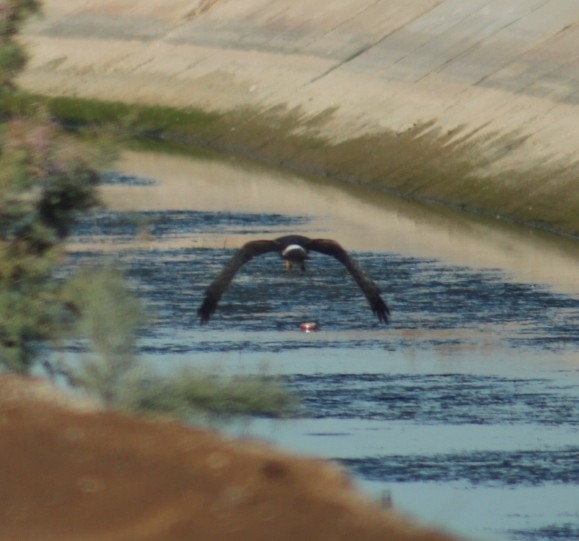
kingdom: Animalia
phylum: Chordata
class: Aves
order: Accipitriformes
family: Accipitridae
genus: Circus
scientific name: Circus cyaneus
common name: Hen harrier
